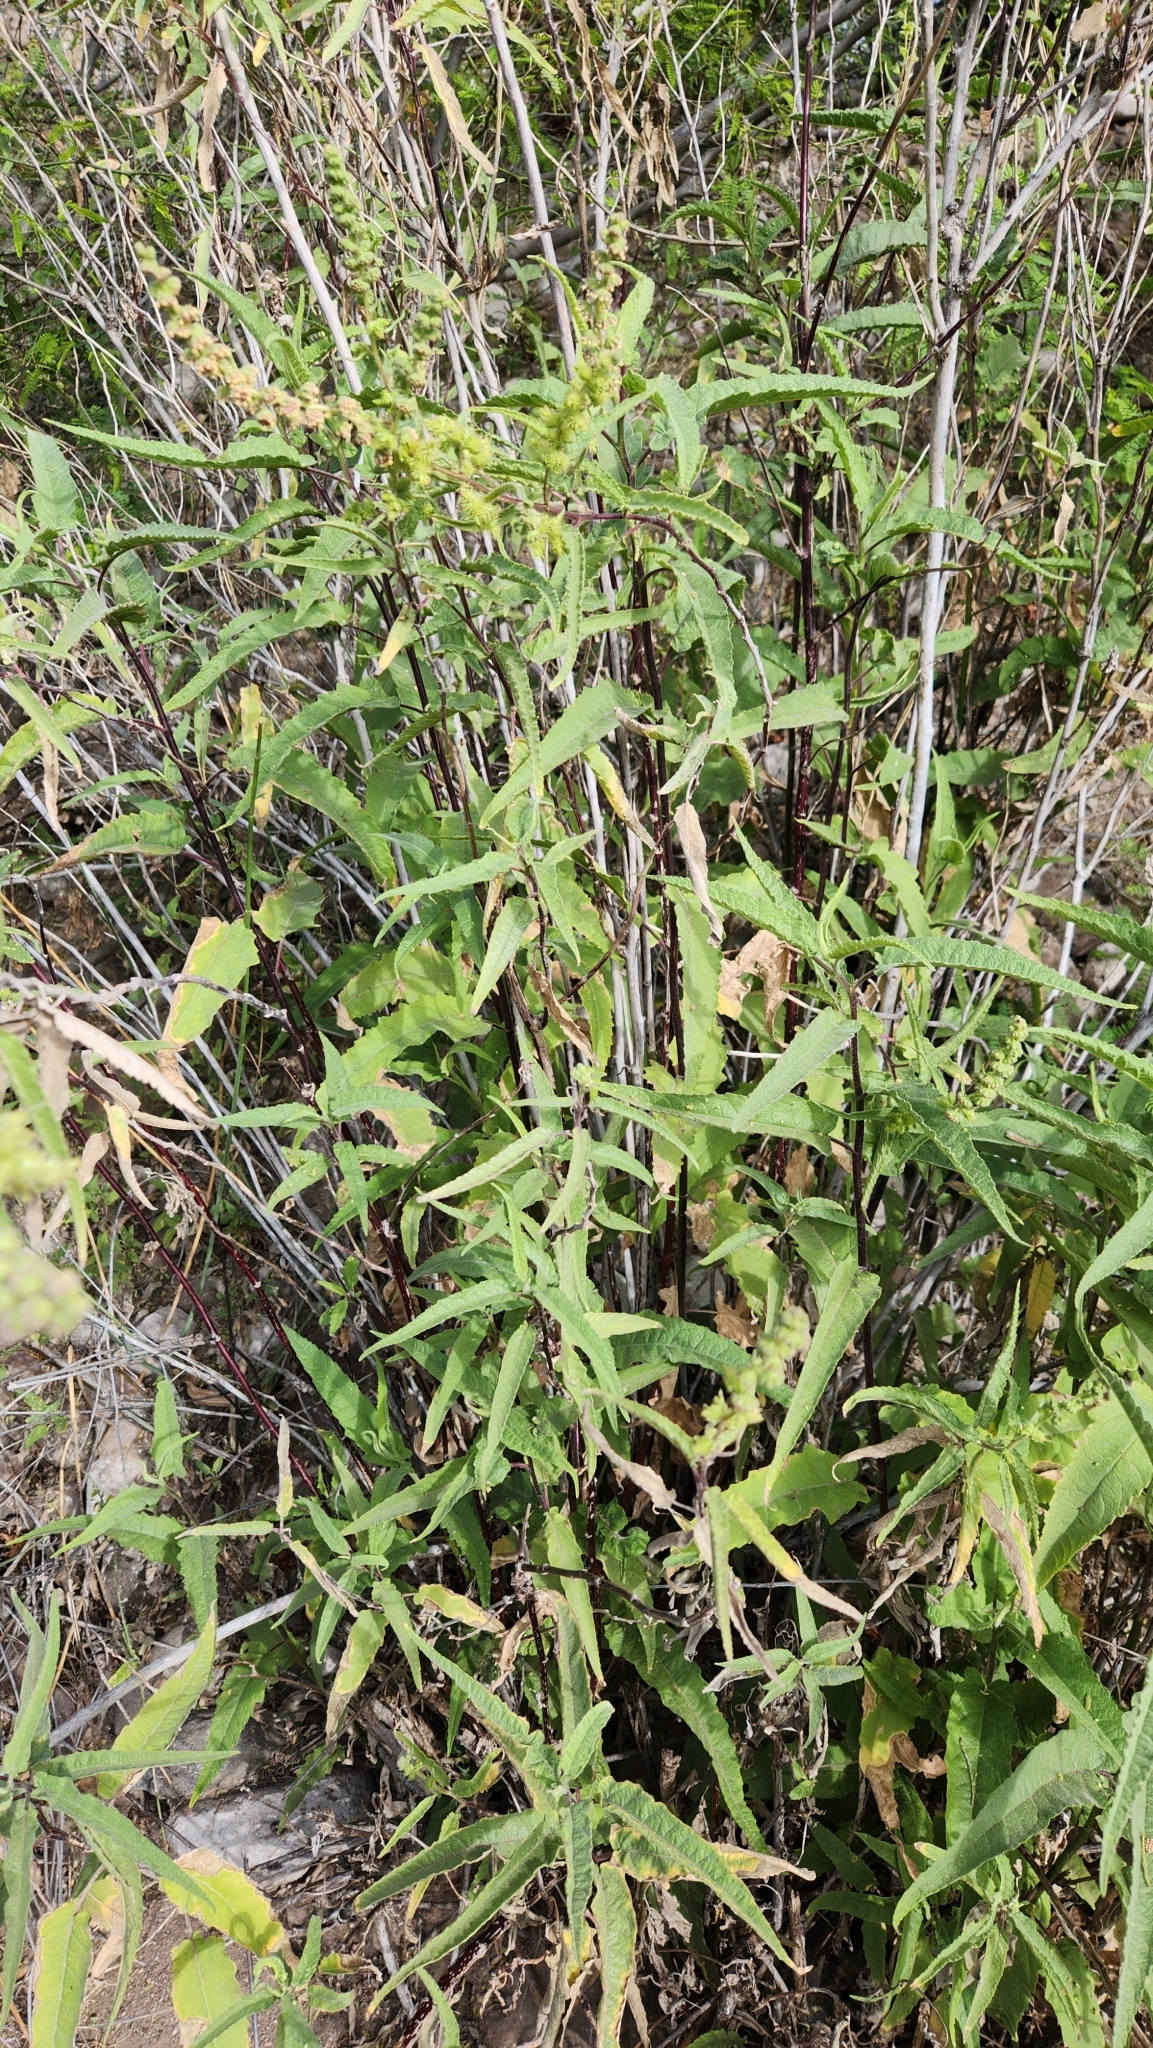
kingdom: Plantae
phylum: Tracheophyta
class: Magnoliopsida
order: Asterales
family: Asteraceae
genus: Ambrosia
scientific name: Ambrosia ambrosioides
